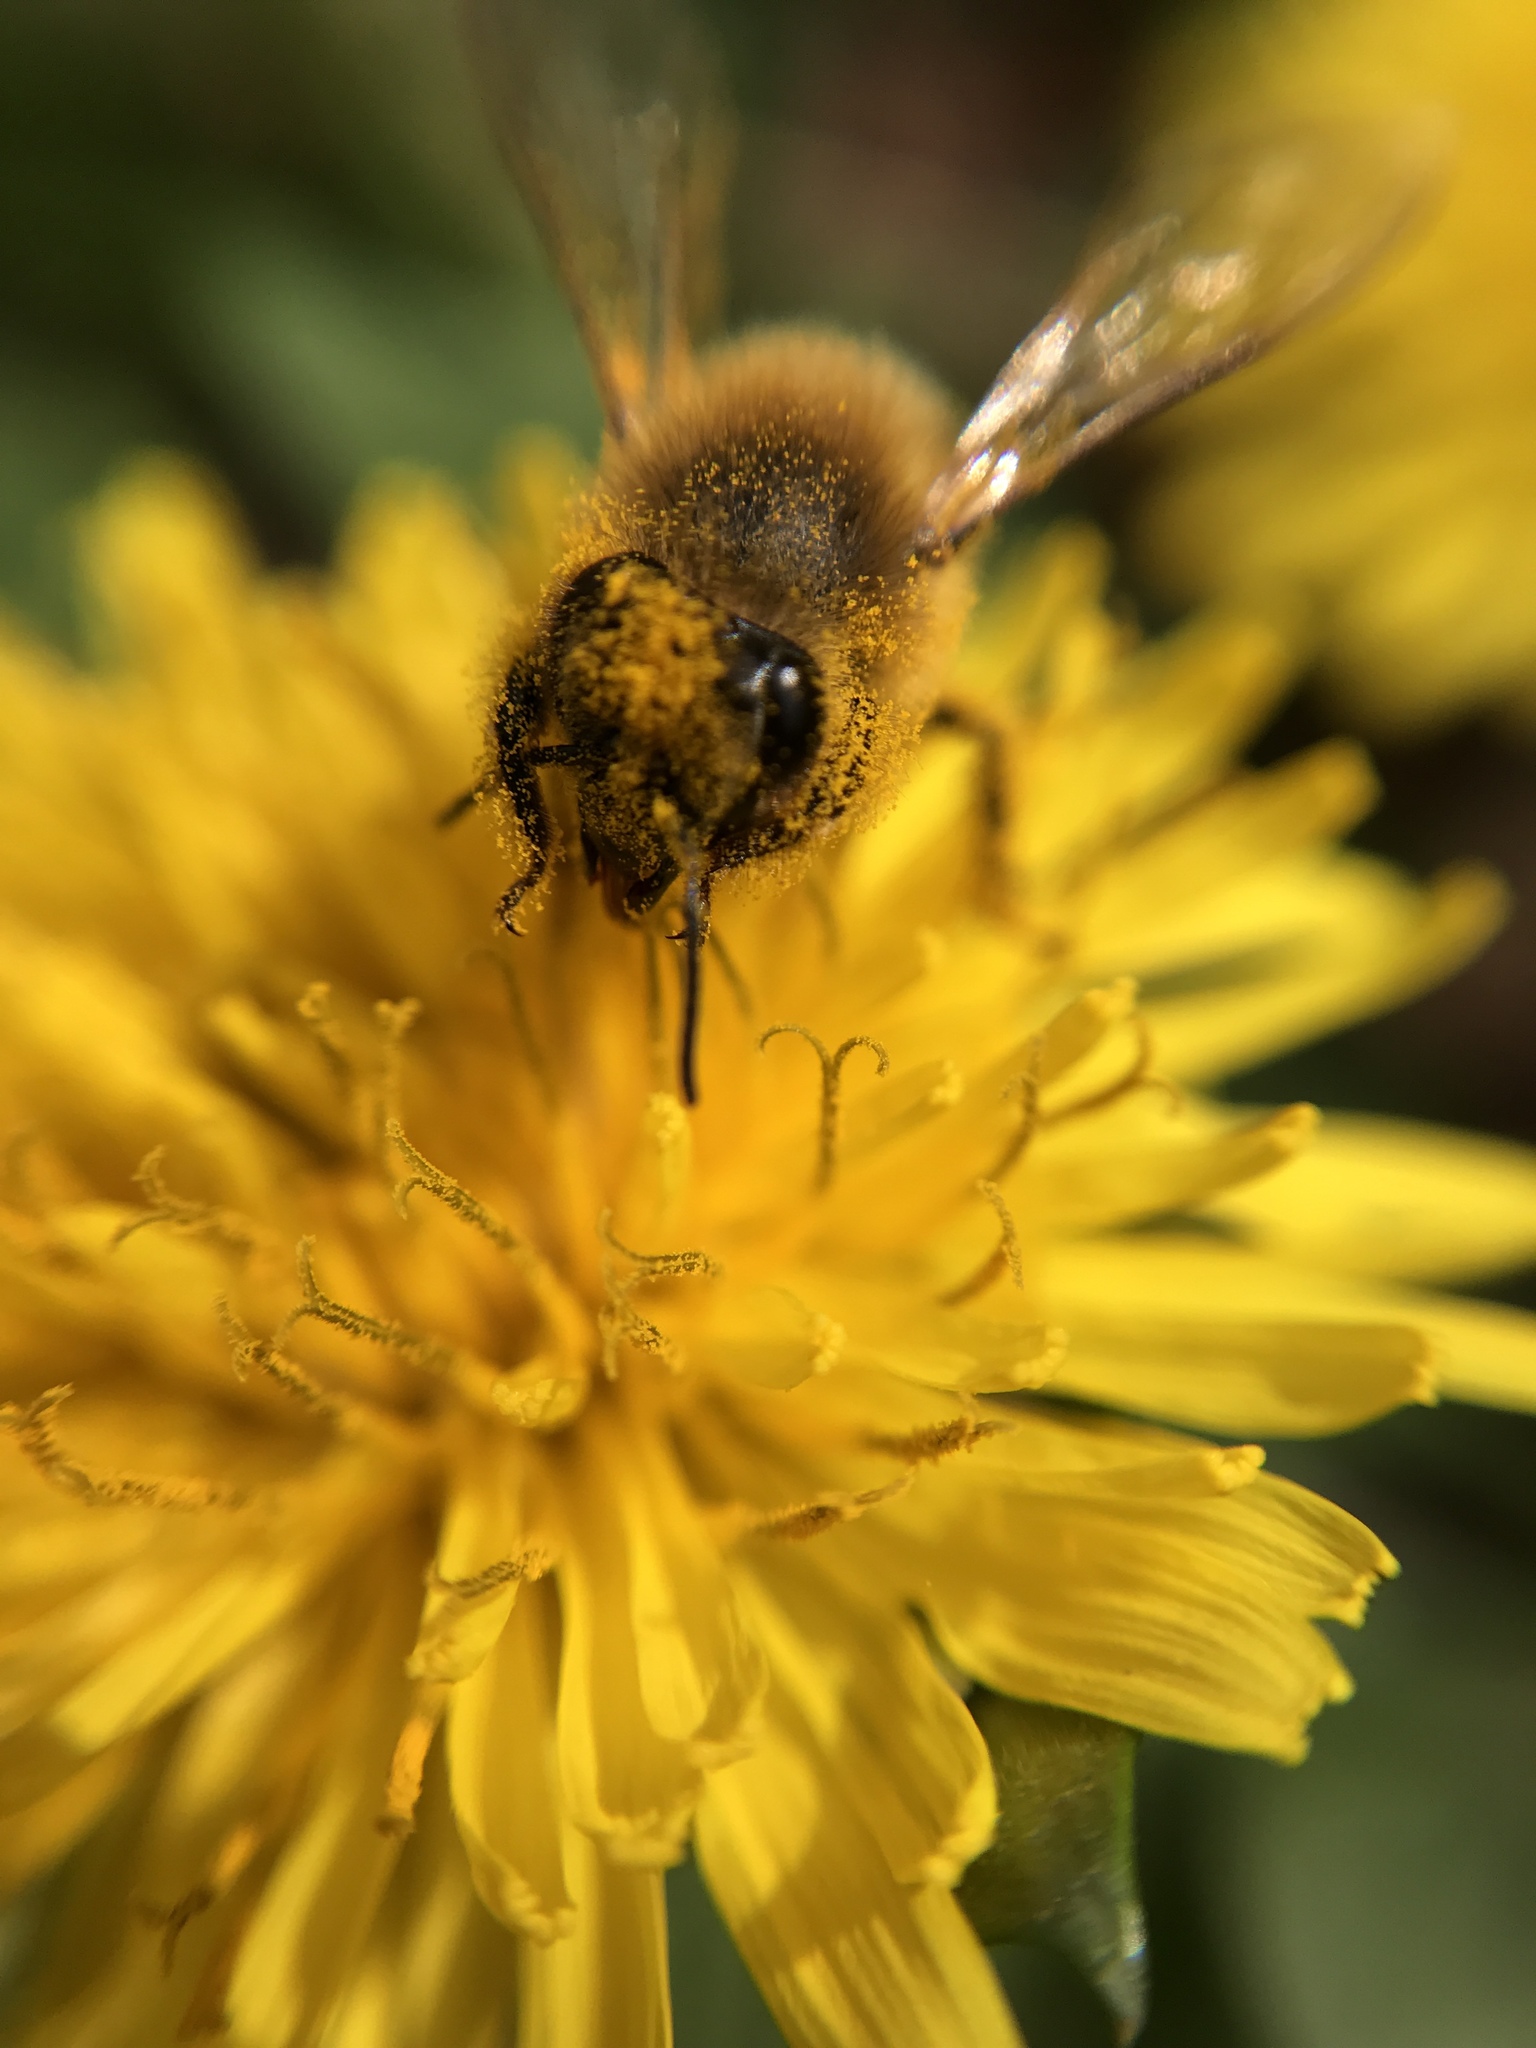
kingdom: Animalia
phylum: Arthropoda
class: Insecta
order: Hymenoptera
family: Apidae
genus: Apis
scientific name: Apis mellifera
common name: Honey bee
